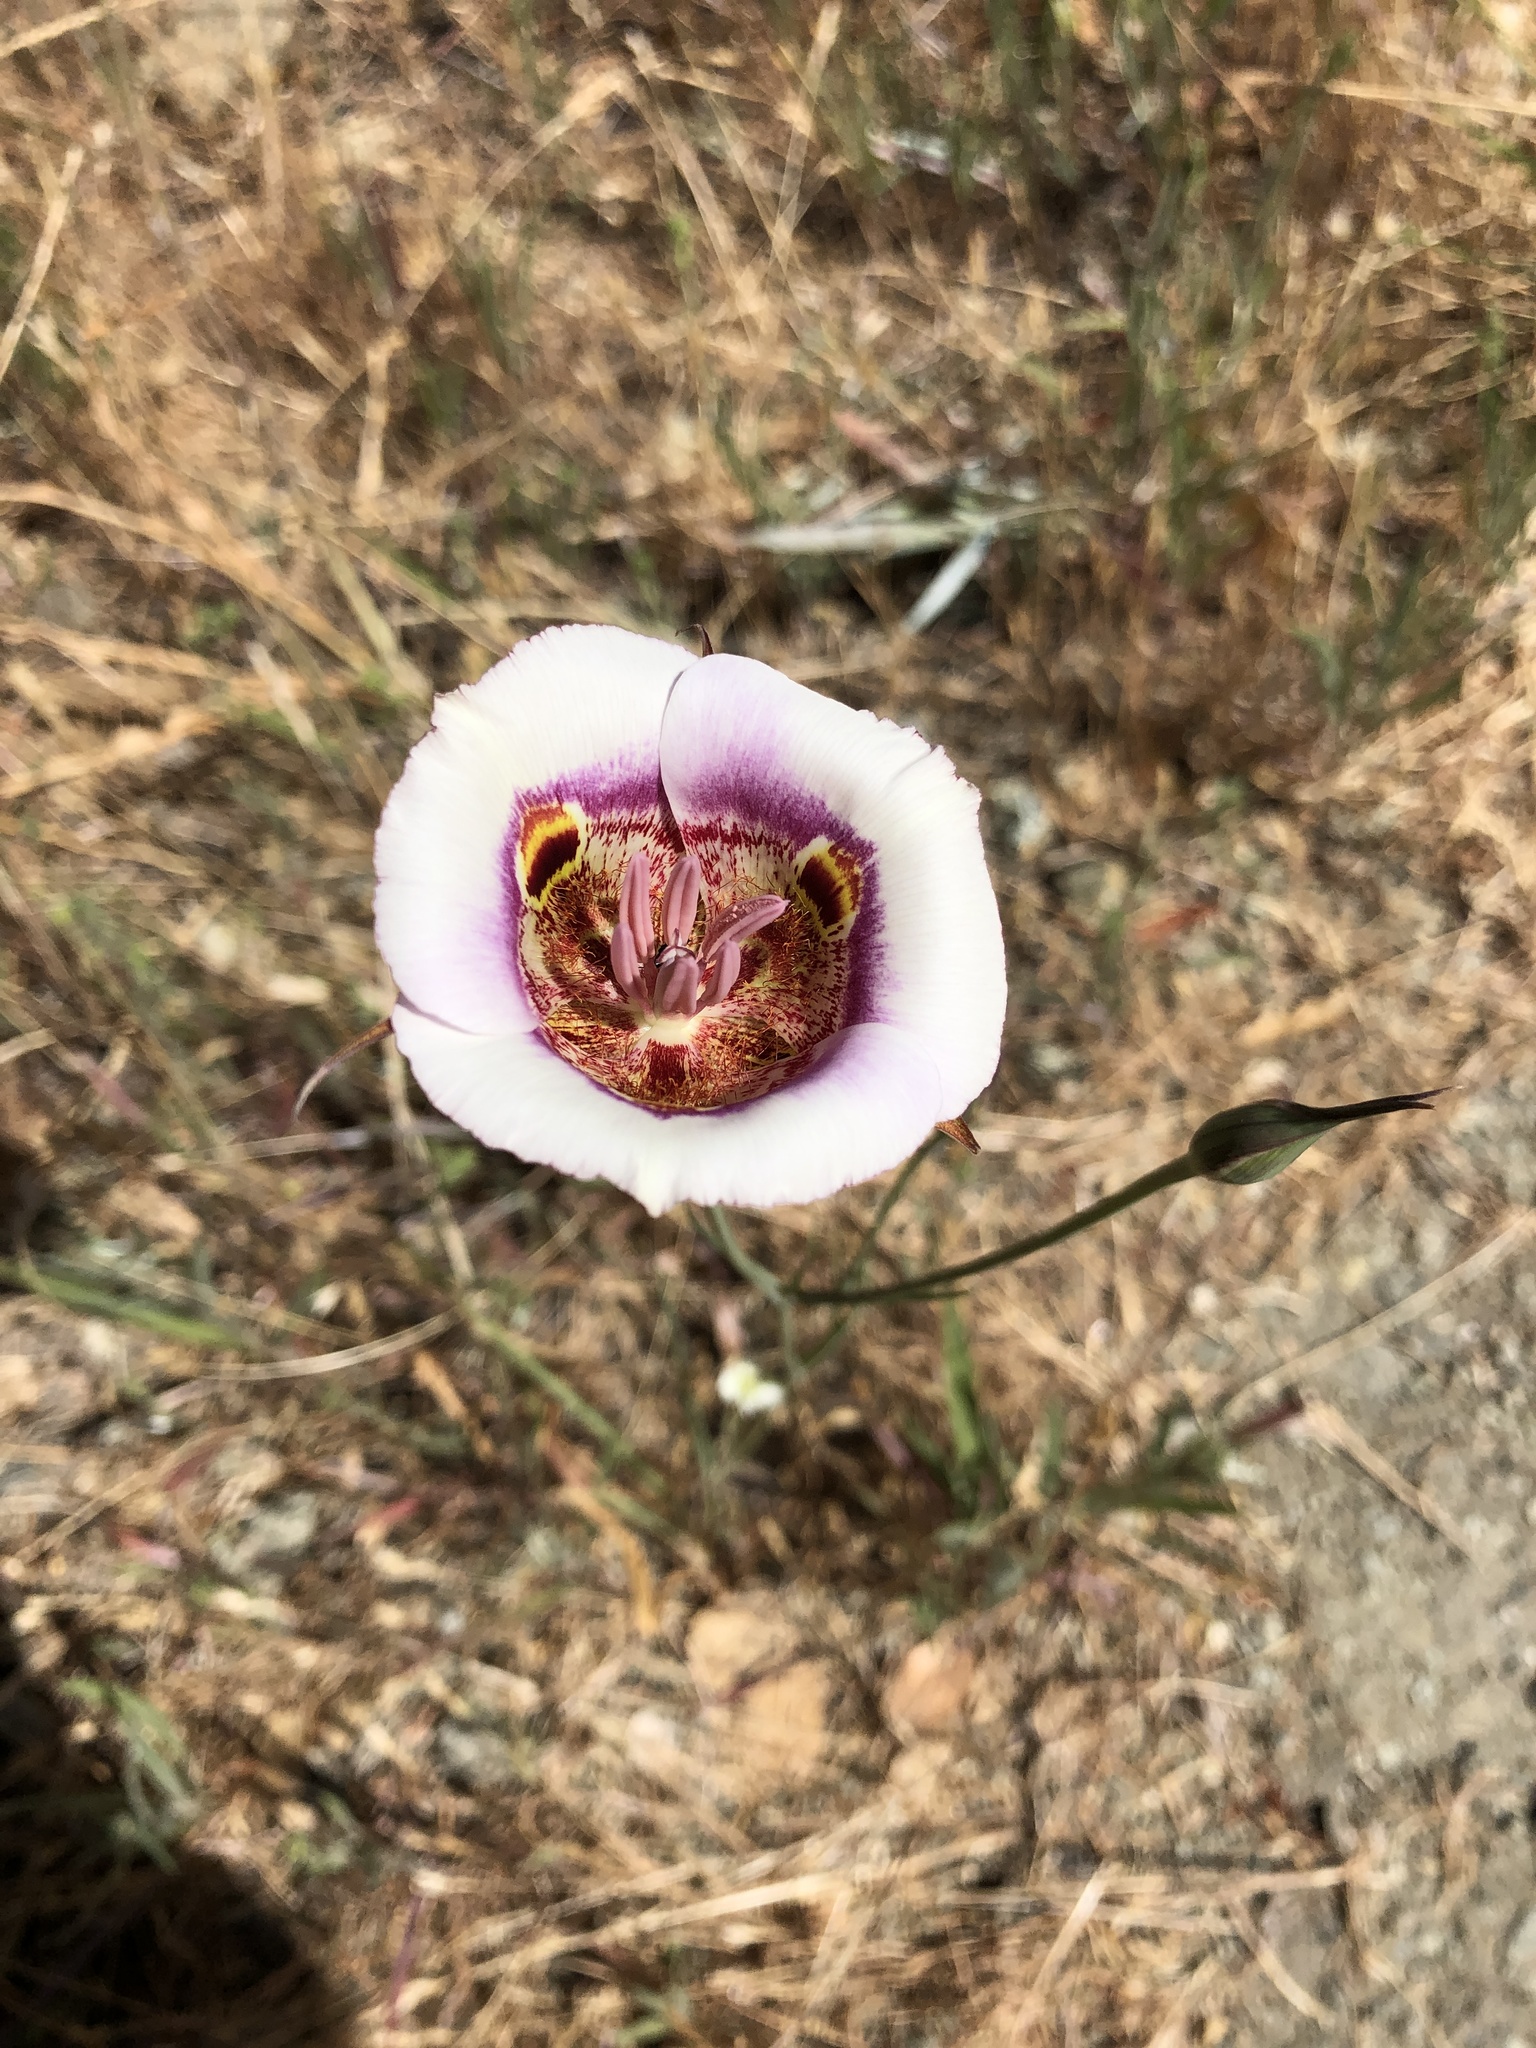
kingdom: Plantae
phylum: Tracheophyta
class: Liliopsida
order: Liliales
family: Liliaceae
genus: Calochortus
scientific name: Calochortus argillosus
